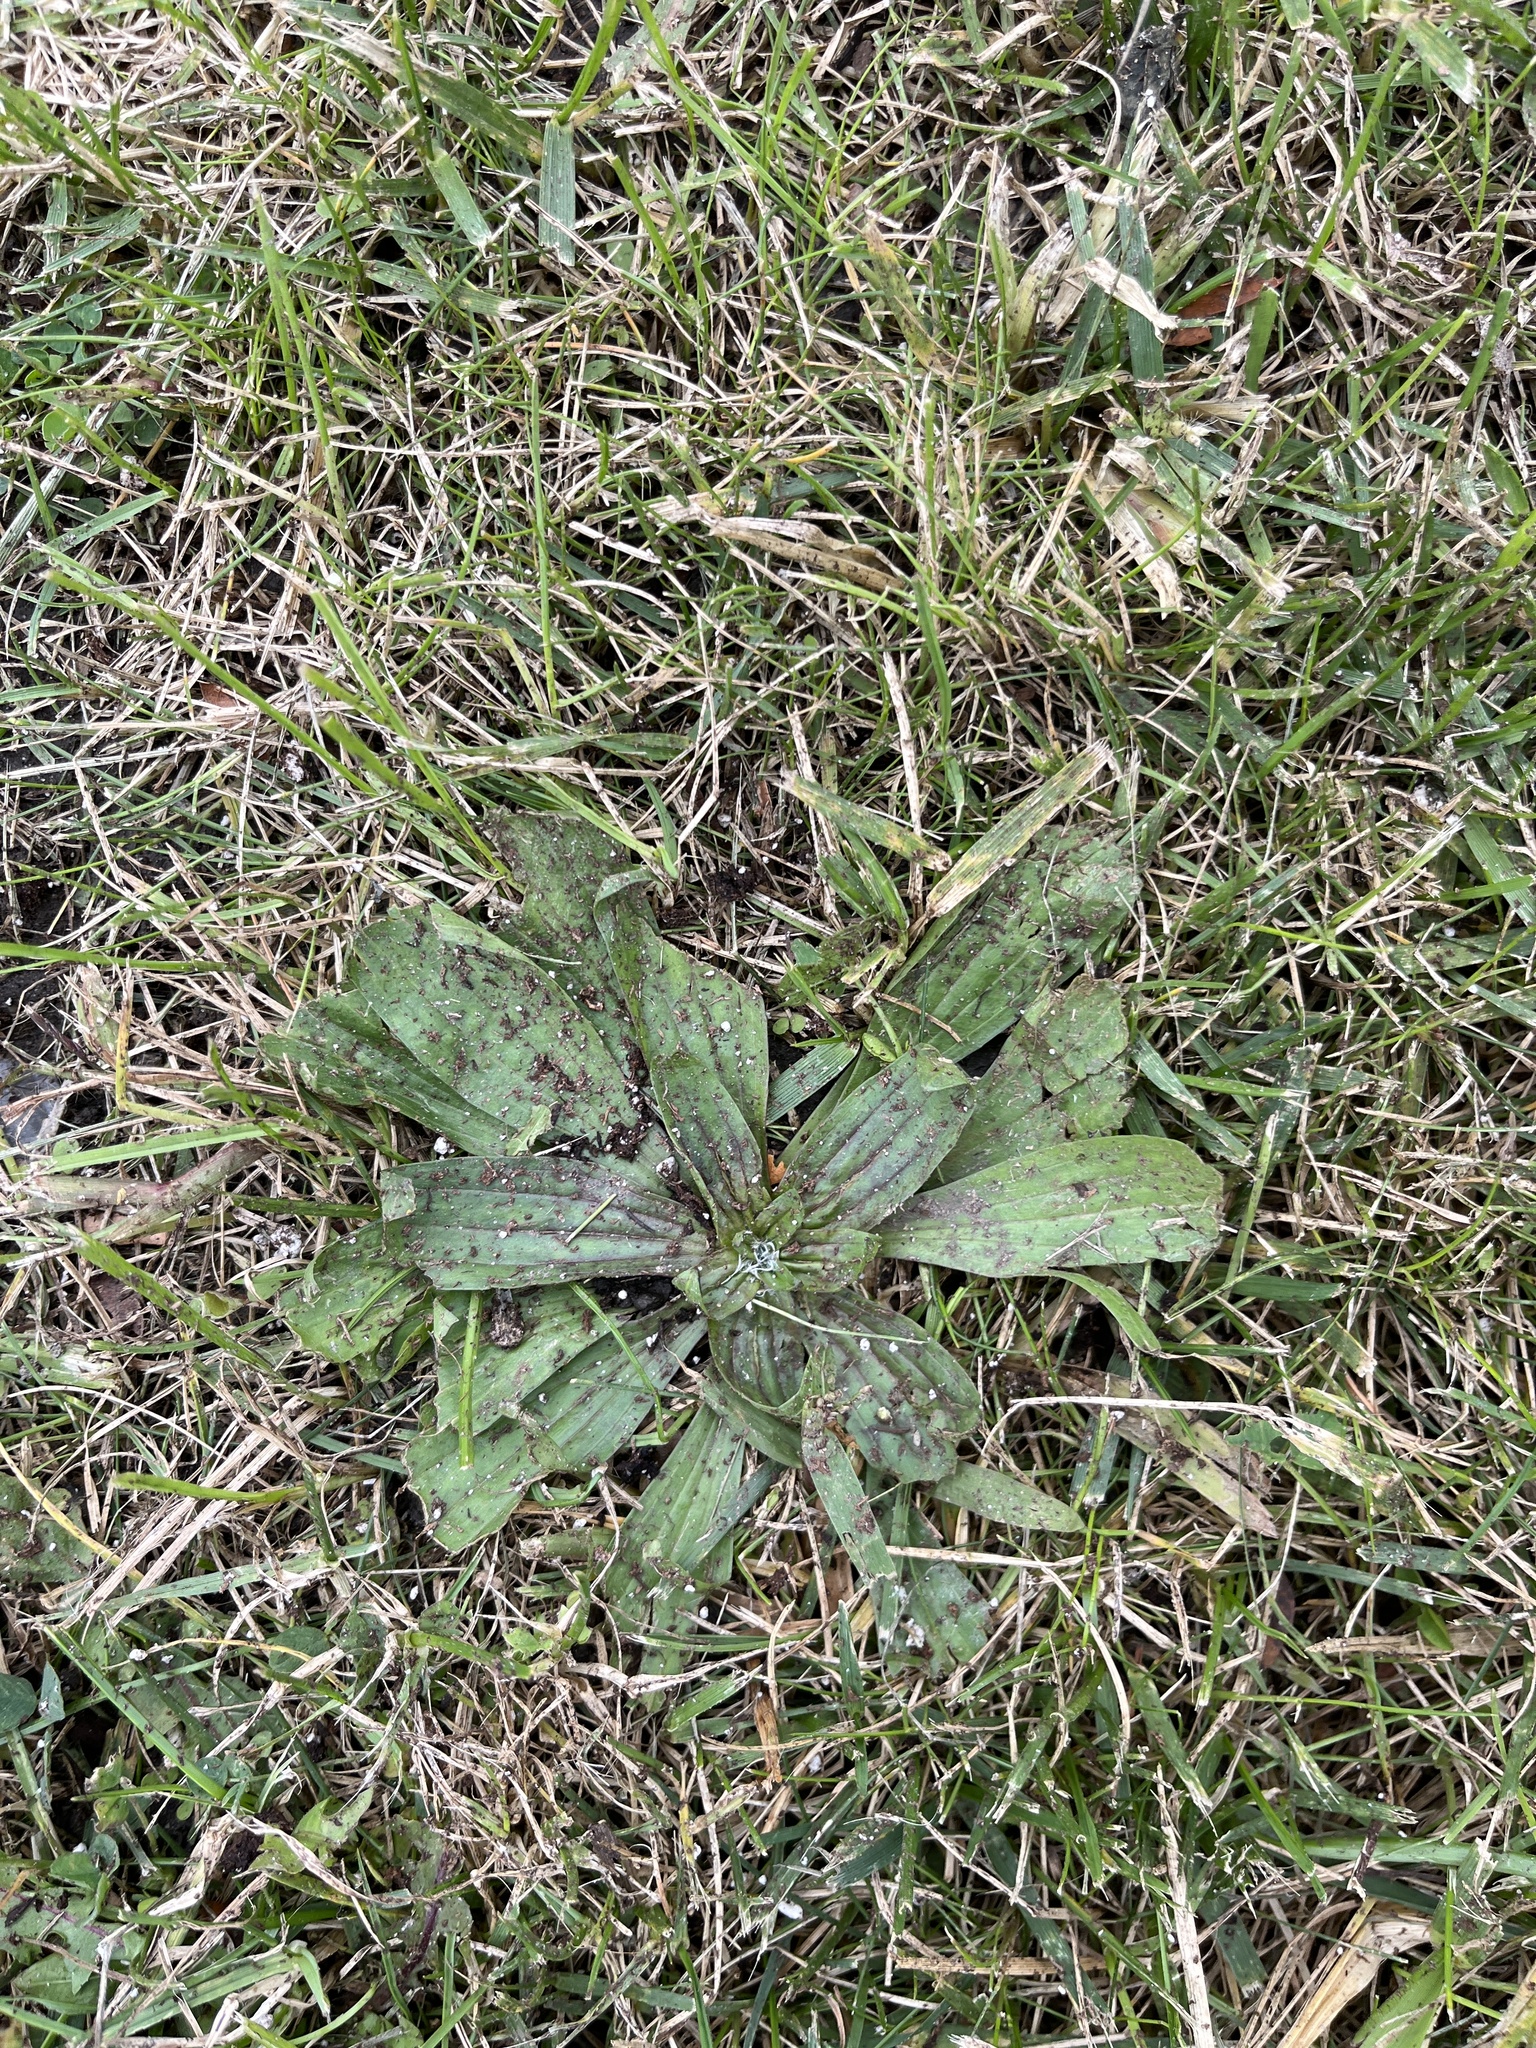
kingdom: Plantae
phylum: Tracheophyta
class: Magnoliopsida
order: Lamiales
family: Plantaginaceae
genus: Plantago
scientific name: Plantago lanceolata
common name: Ribwort plantain
